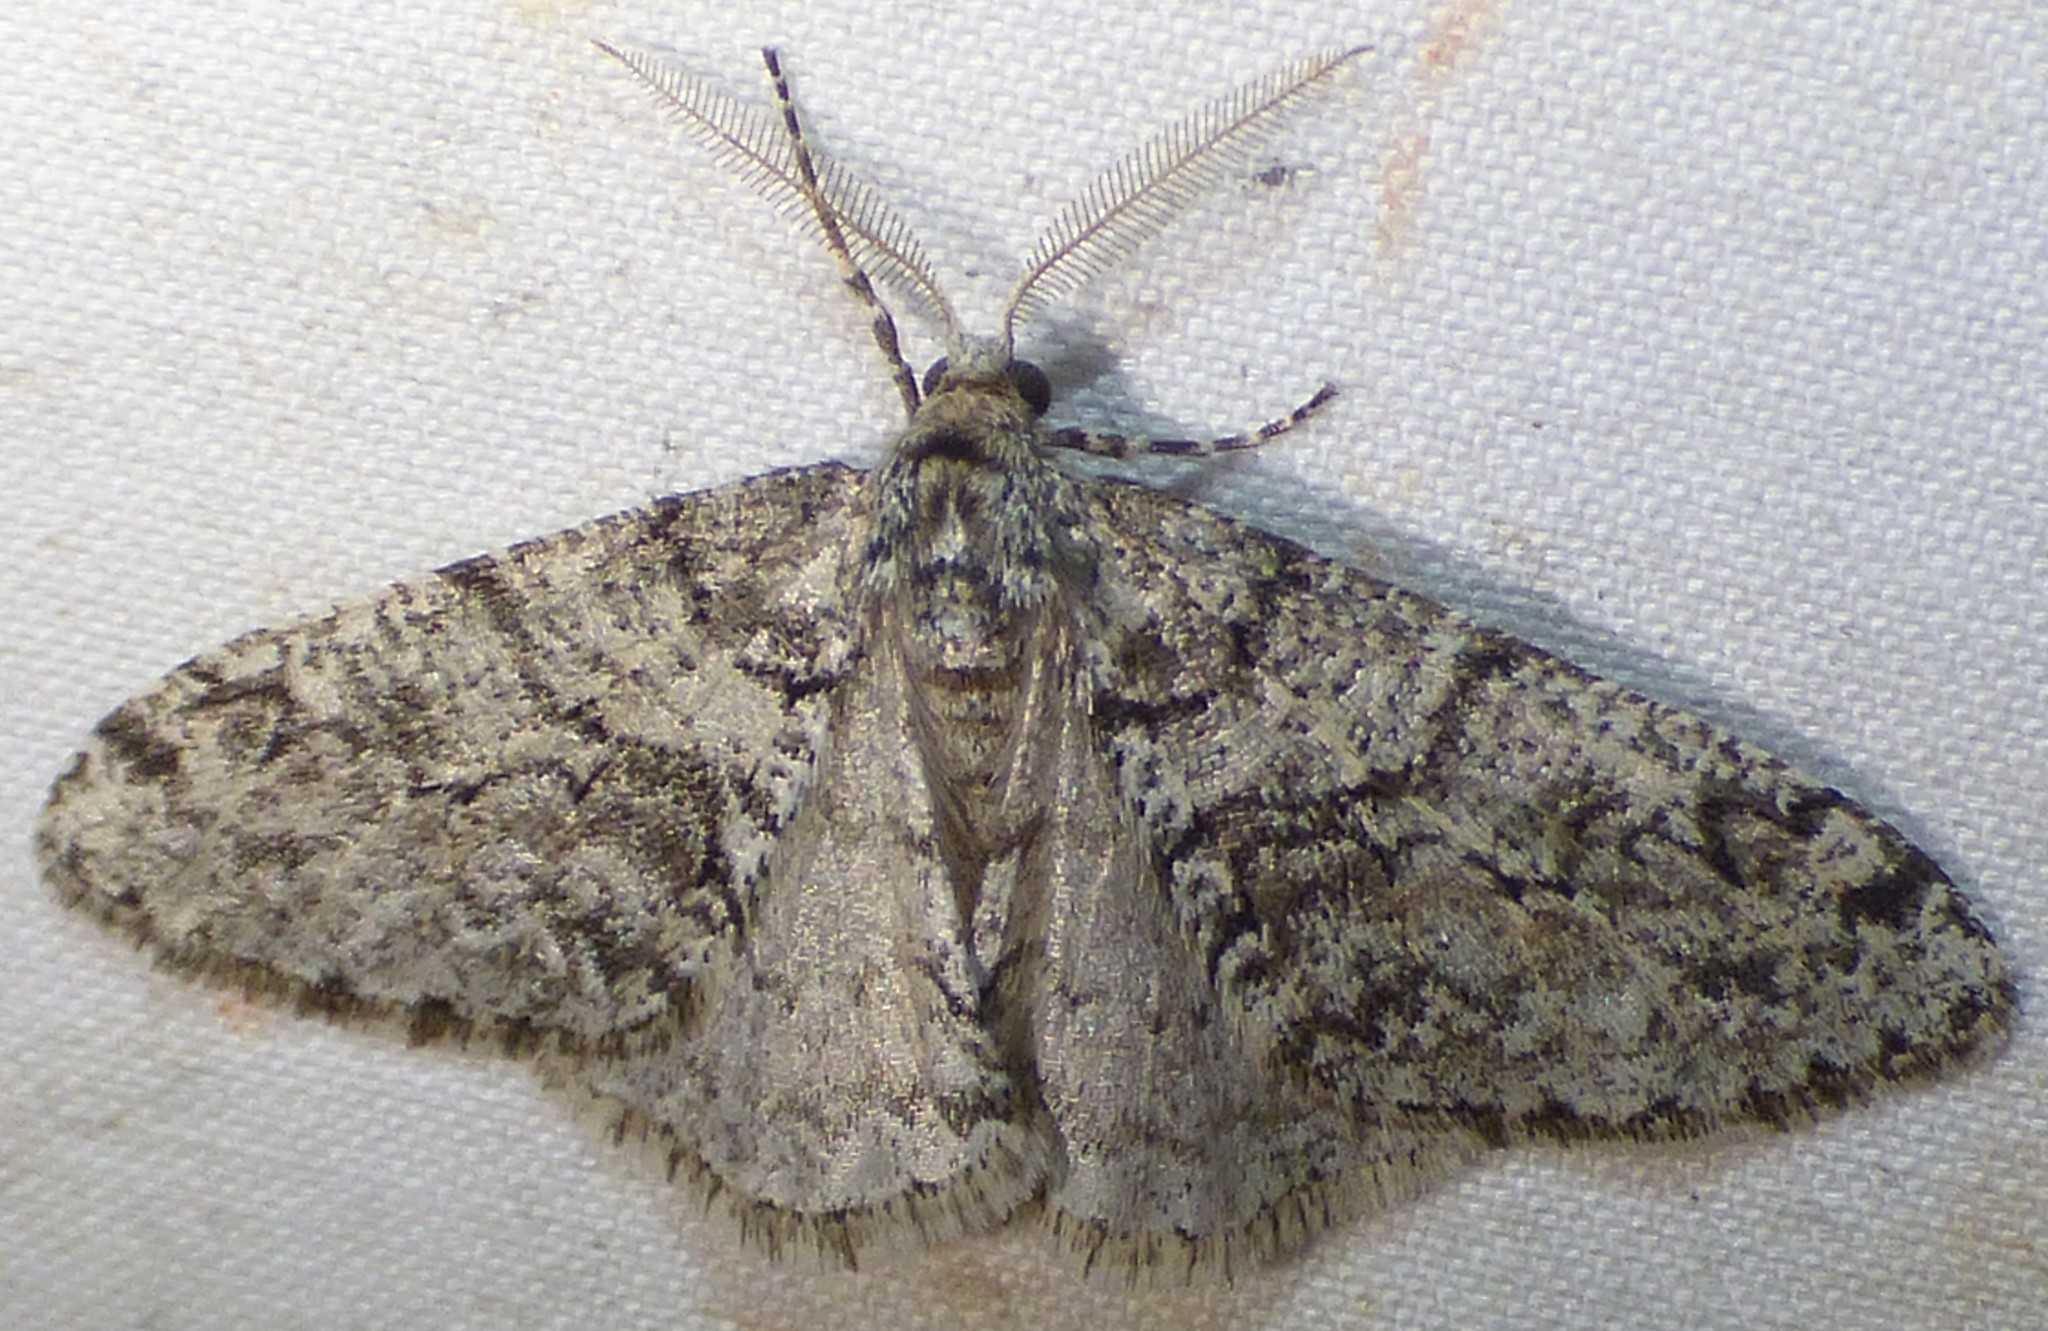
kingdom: Animalia
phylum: Arthropoda
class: Insecta
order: Lepidoptera
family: Geometridae
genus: Phigalia
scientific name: Phigalia denticulata
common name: Toothed phigalia
